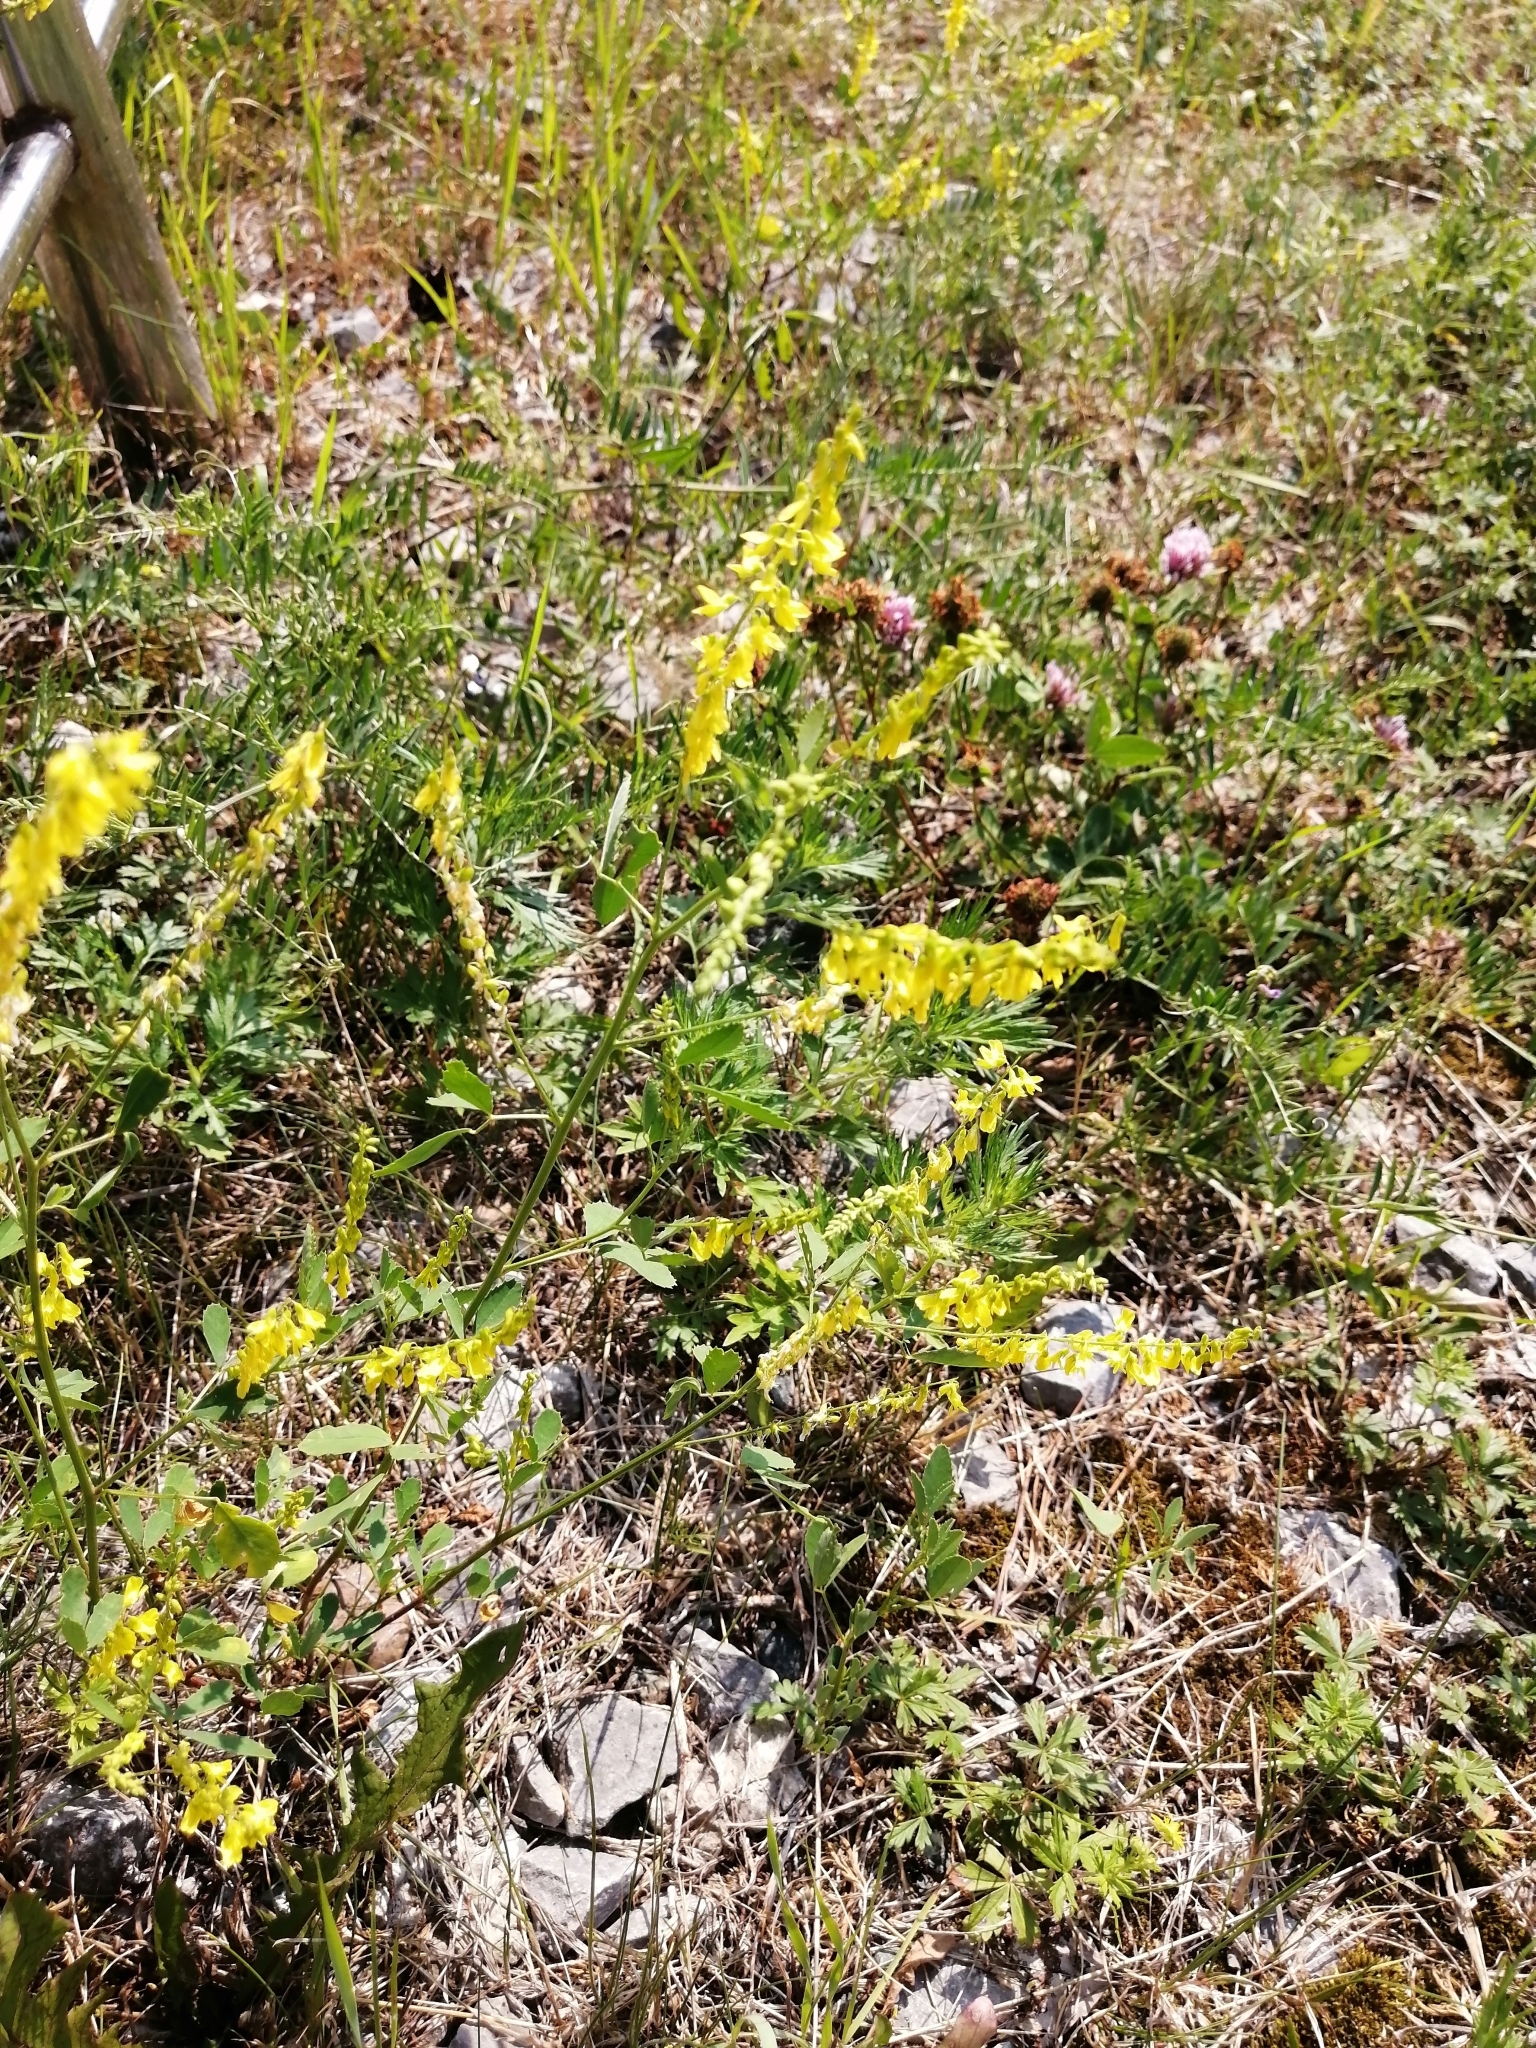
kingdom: Plantae
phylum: Tracheophyta
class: Magnoliopsida
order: Fabales
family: Fabaceae
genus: Melilotus
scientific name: Melilotus officinalis
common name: Sweetclover
